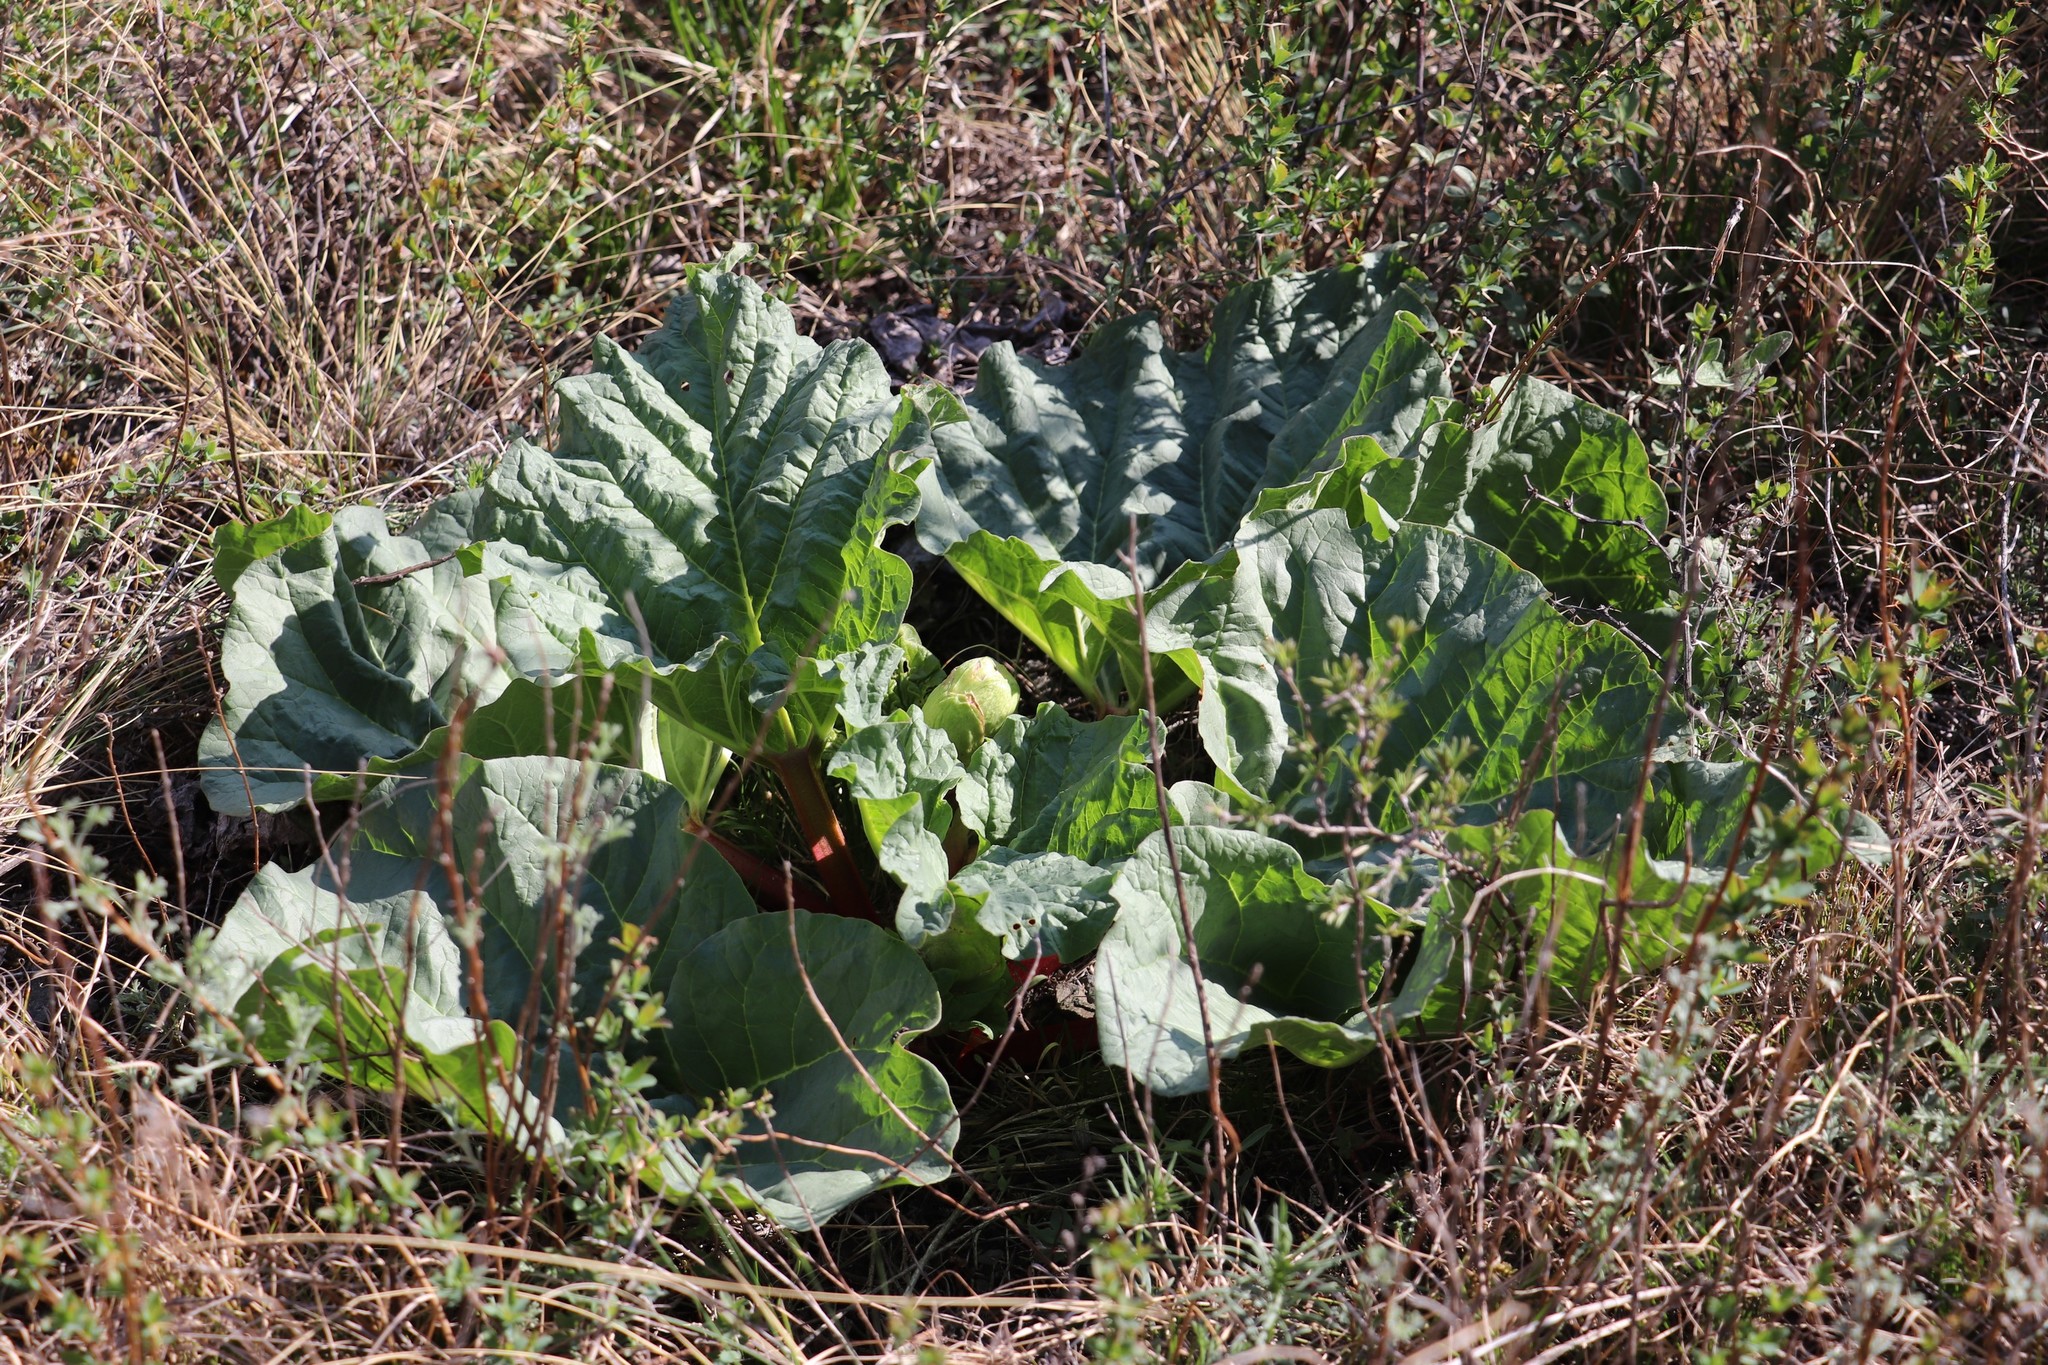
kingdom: Plantae
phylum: Tracheophyta
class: Magnoliopsida
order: Caryophyllales
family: Polygonaceae
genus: Rheum
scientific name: Rheum compactum
